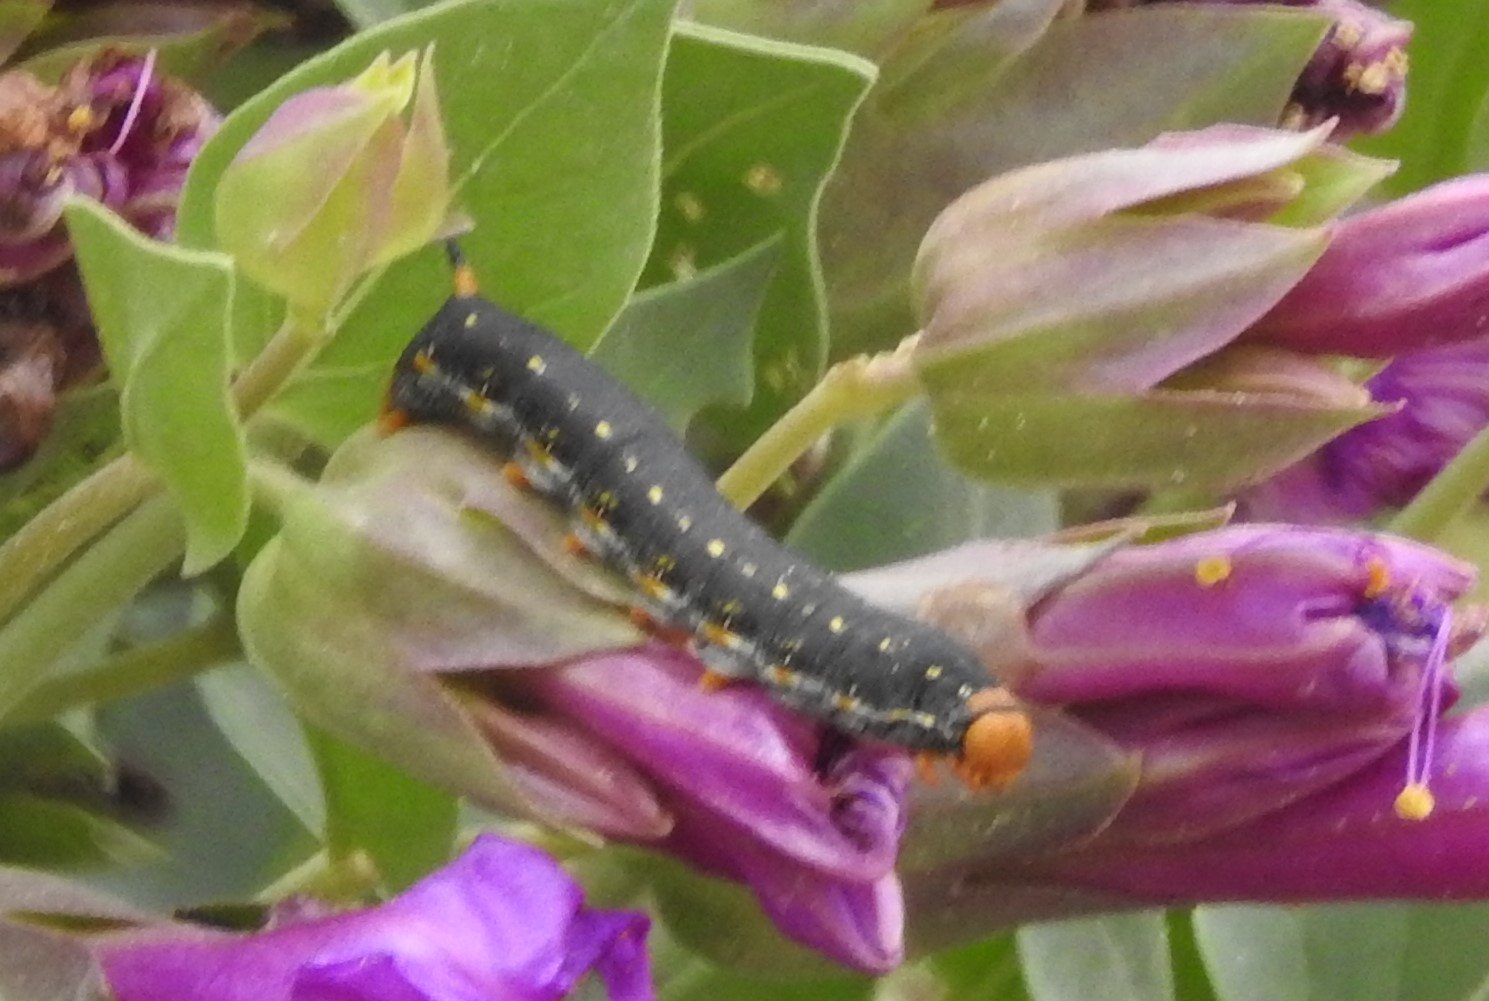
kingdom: Animalia
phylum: Arthropoda
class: Insecta
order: Lepidoptera
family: Sphingidae
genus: Hyles
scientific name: Hyles lineata
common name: White-lined sphinx
